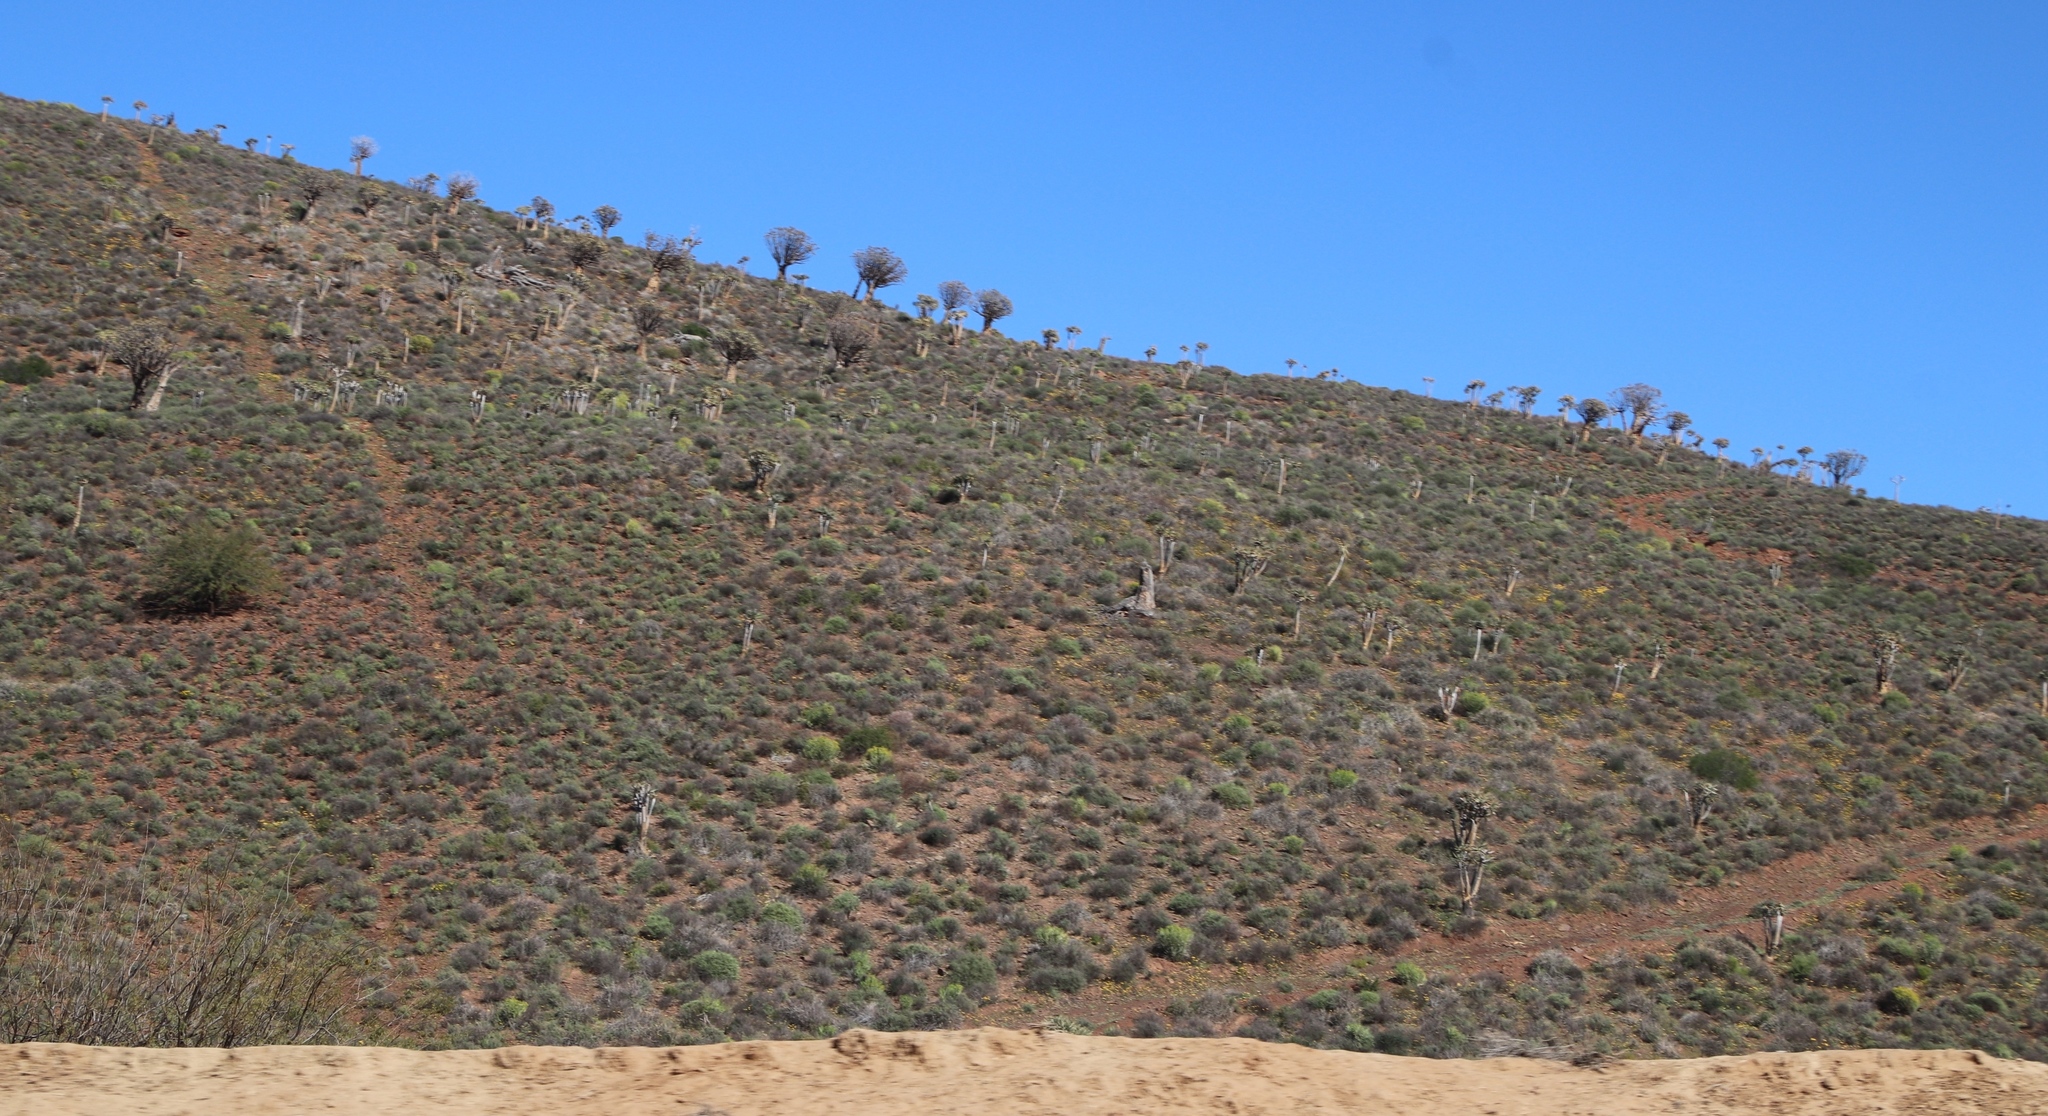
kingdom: Plantae
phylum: Tracheophyta
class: Liliopsida
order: Asparagales
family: Asphodelaceae
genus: Aloidendron
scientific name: Aloidendron dichotomum
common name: Quiver tree
